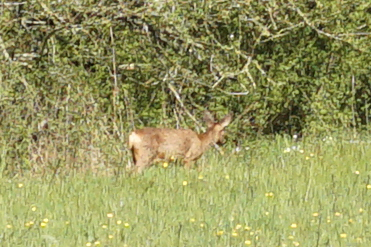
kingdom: Animalia
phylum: Chordata
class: Mammalia
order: Artiodactyla
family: Cervidae
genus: Capreolus
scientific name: Capreolus capreolus
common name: Western roe deer
